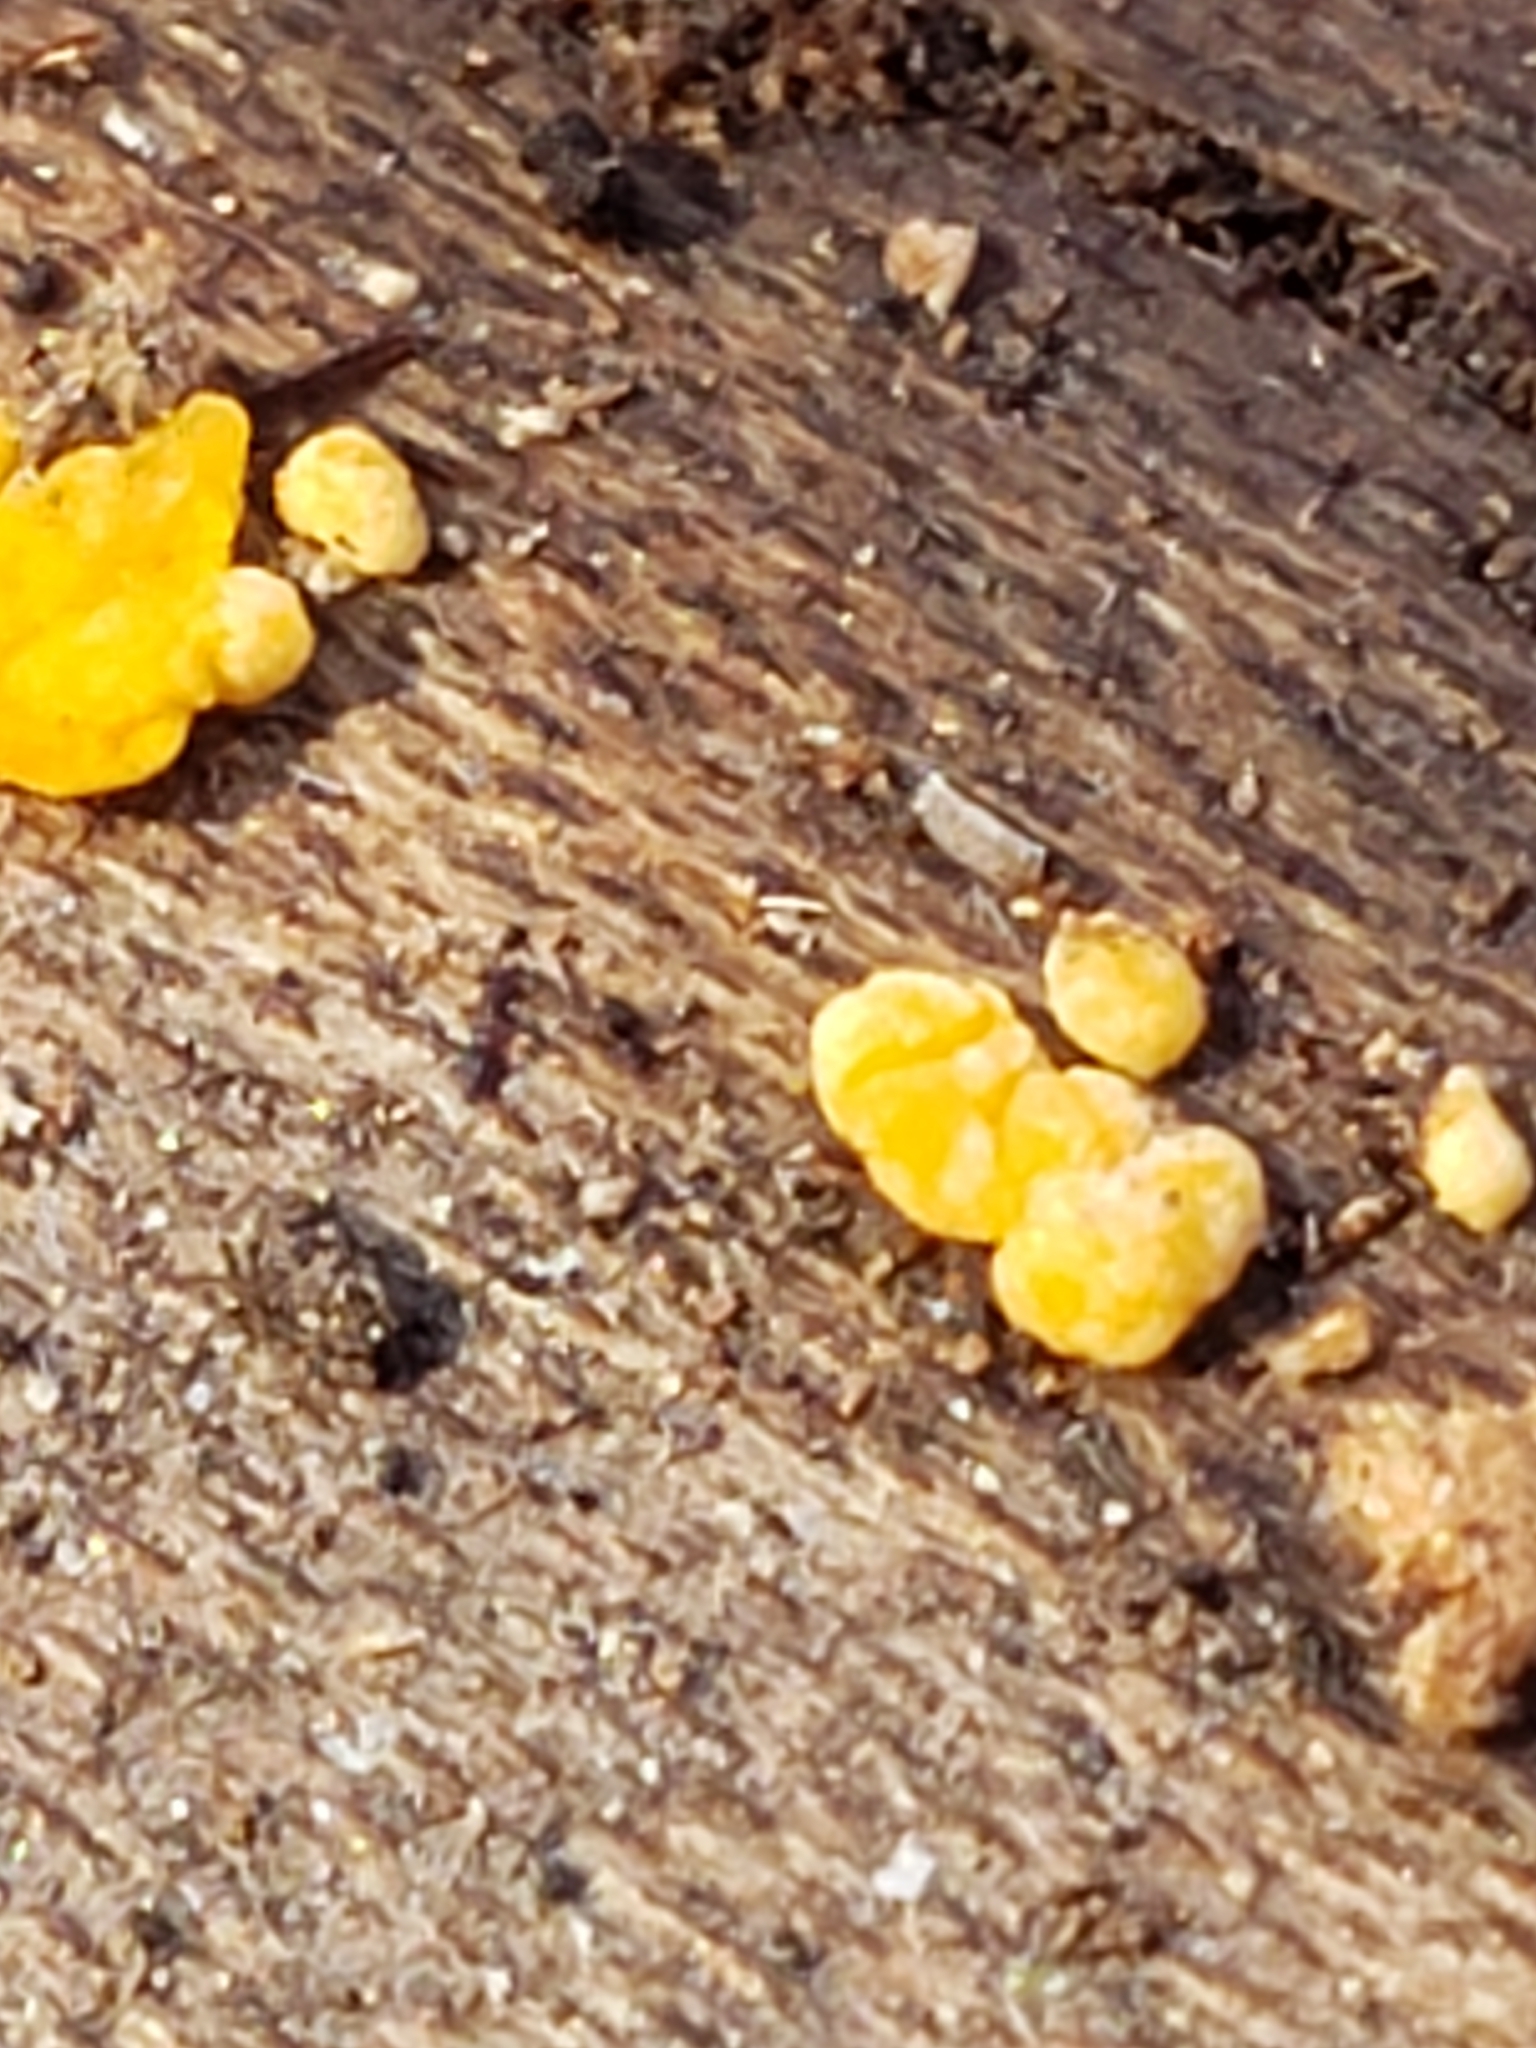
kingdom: Fungi
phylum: Basidiomycota
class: Dacrymycetes
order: Dacrymycetales
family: Dacrymycetaceae
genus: Dacrymyces
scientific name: Dacrymyces stillatus
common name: Common jelly spot
